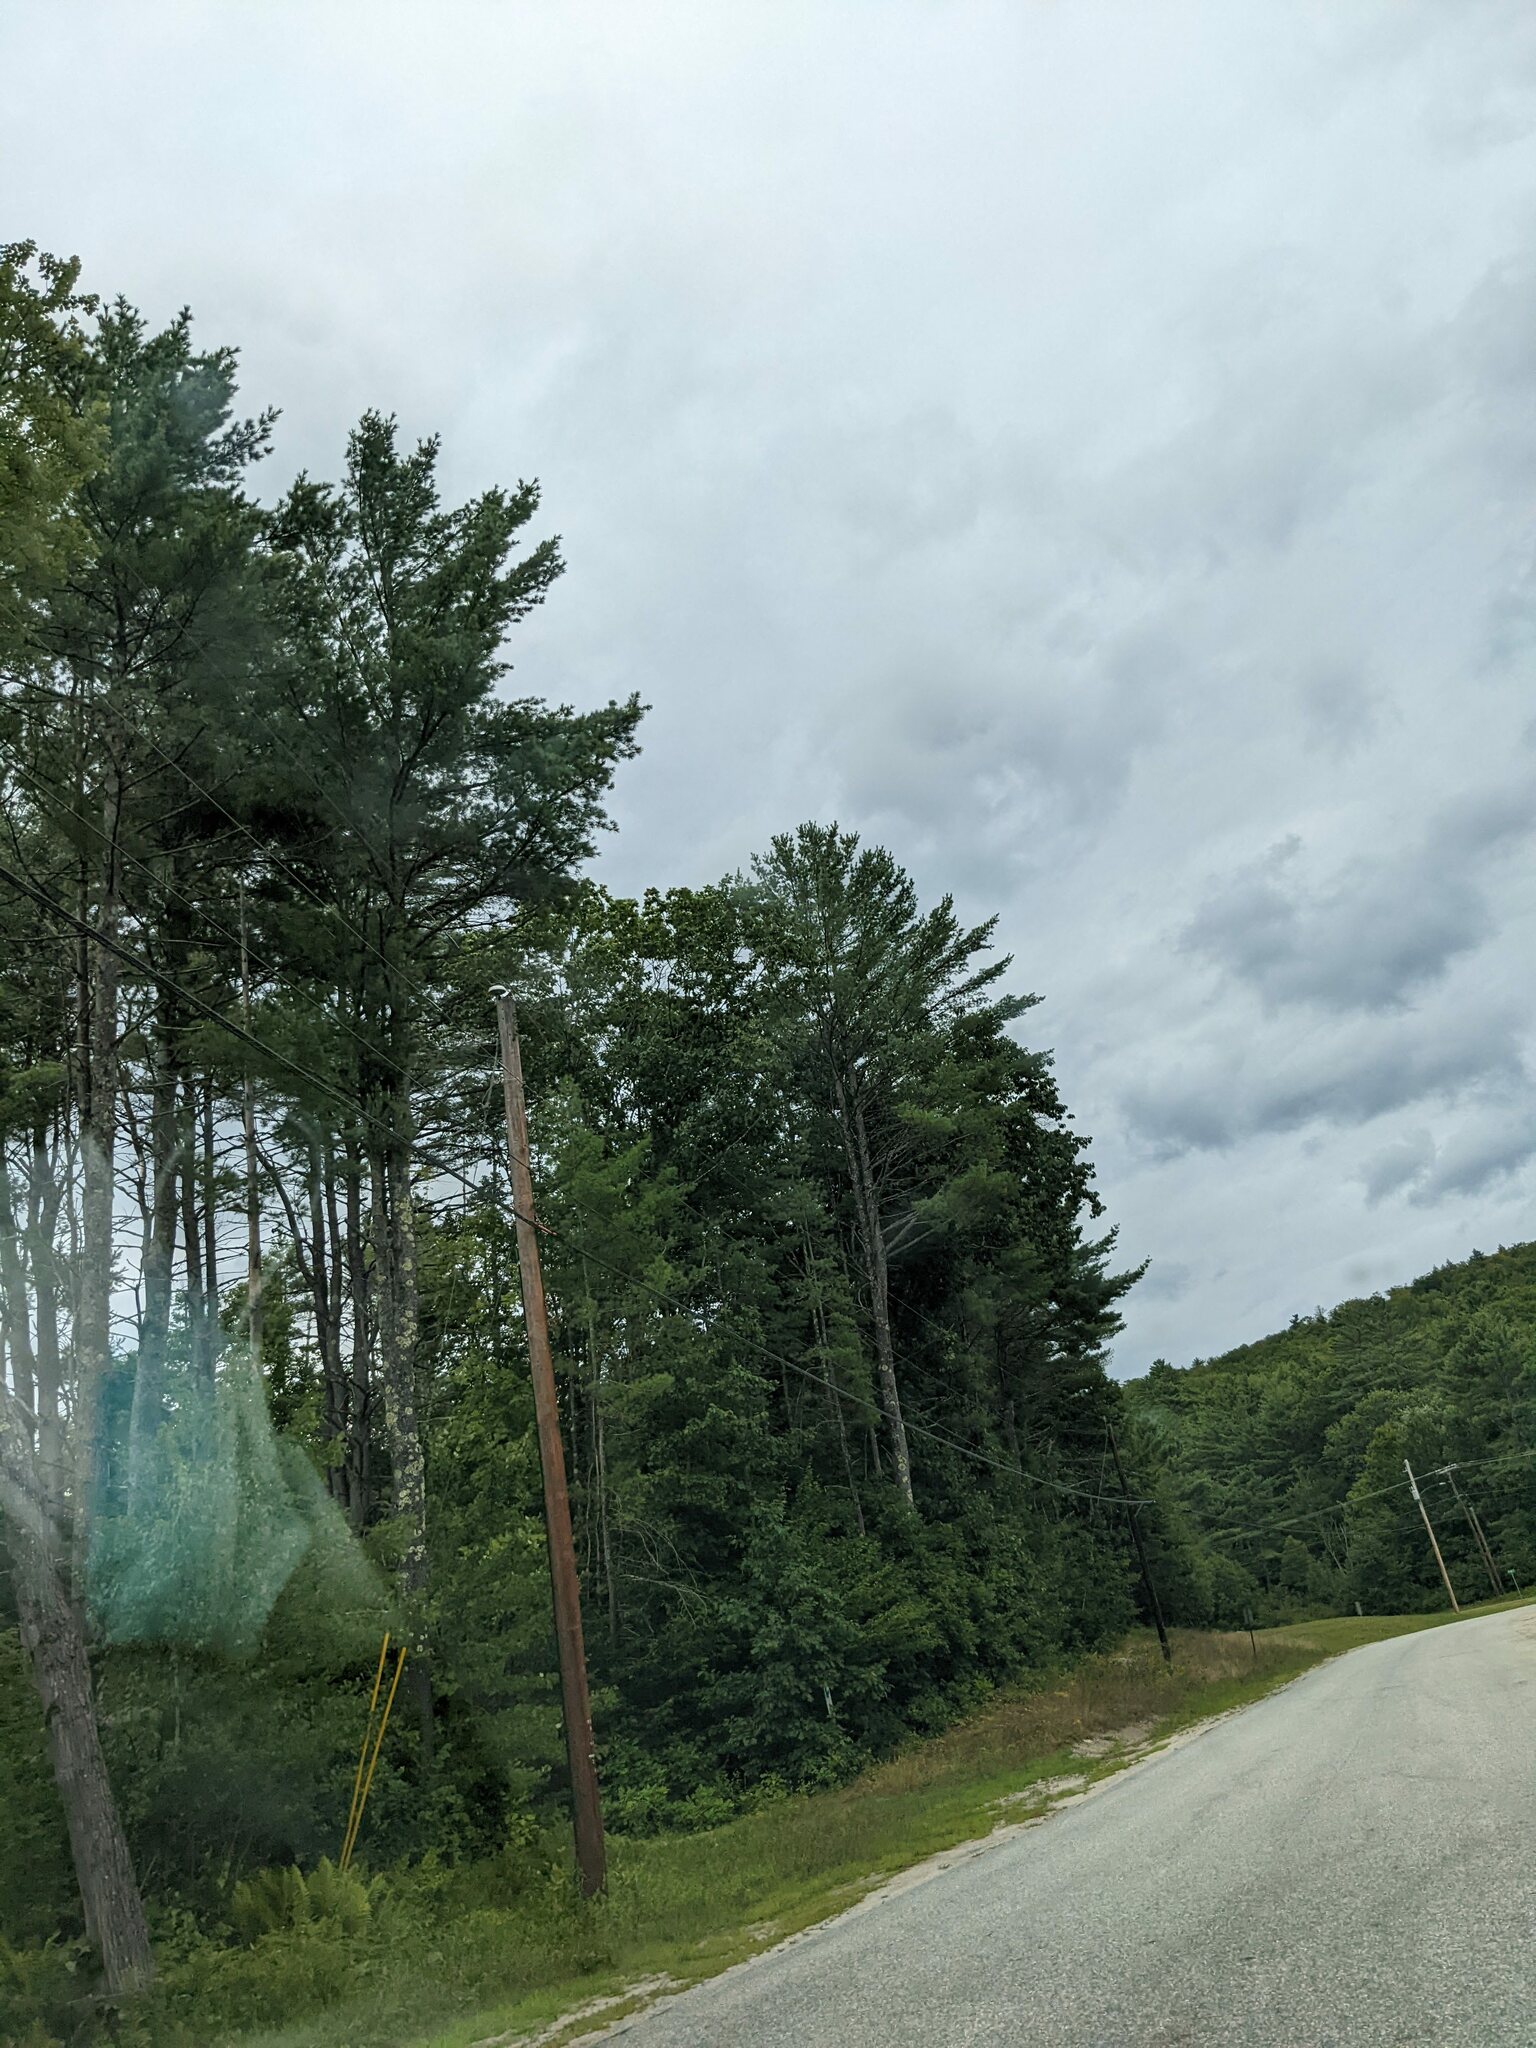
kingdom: Plantae
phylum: Tracheophyta
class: Pinopsida
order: Pinales
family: Pinaceae
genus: Pinus
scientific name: Pinus strobus
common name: Weymouth pine
